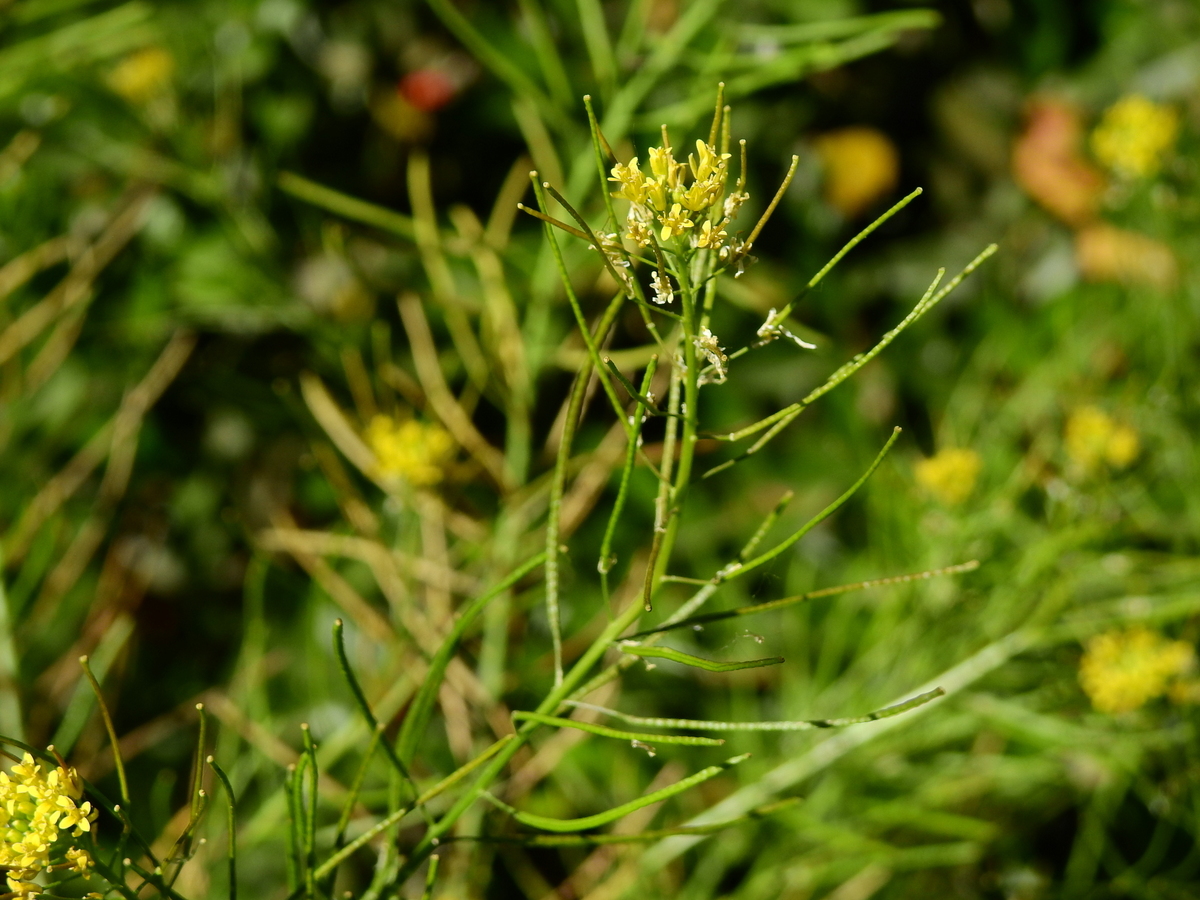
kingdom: Plantae
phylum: Tracheophyta
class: Magnoliopsida
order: Brassicales
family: Brassicaceae
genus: Sisymbrium
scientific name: Sisymbrium irio
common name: London rocket
